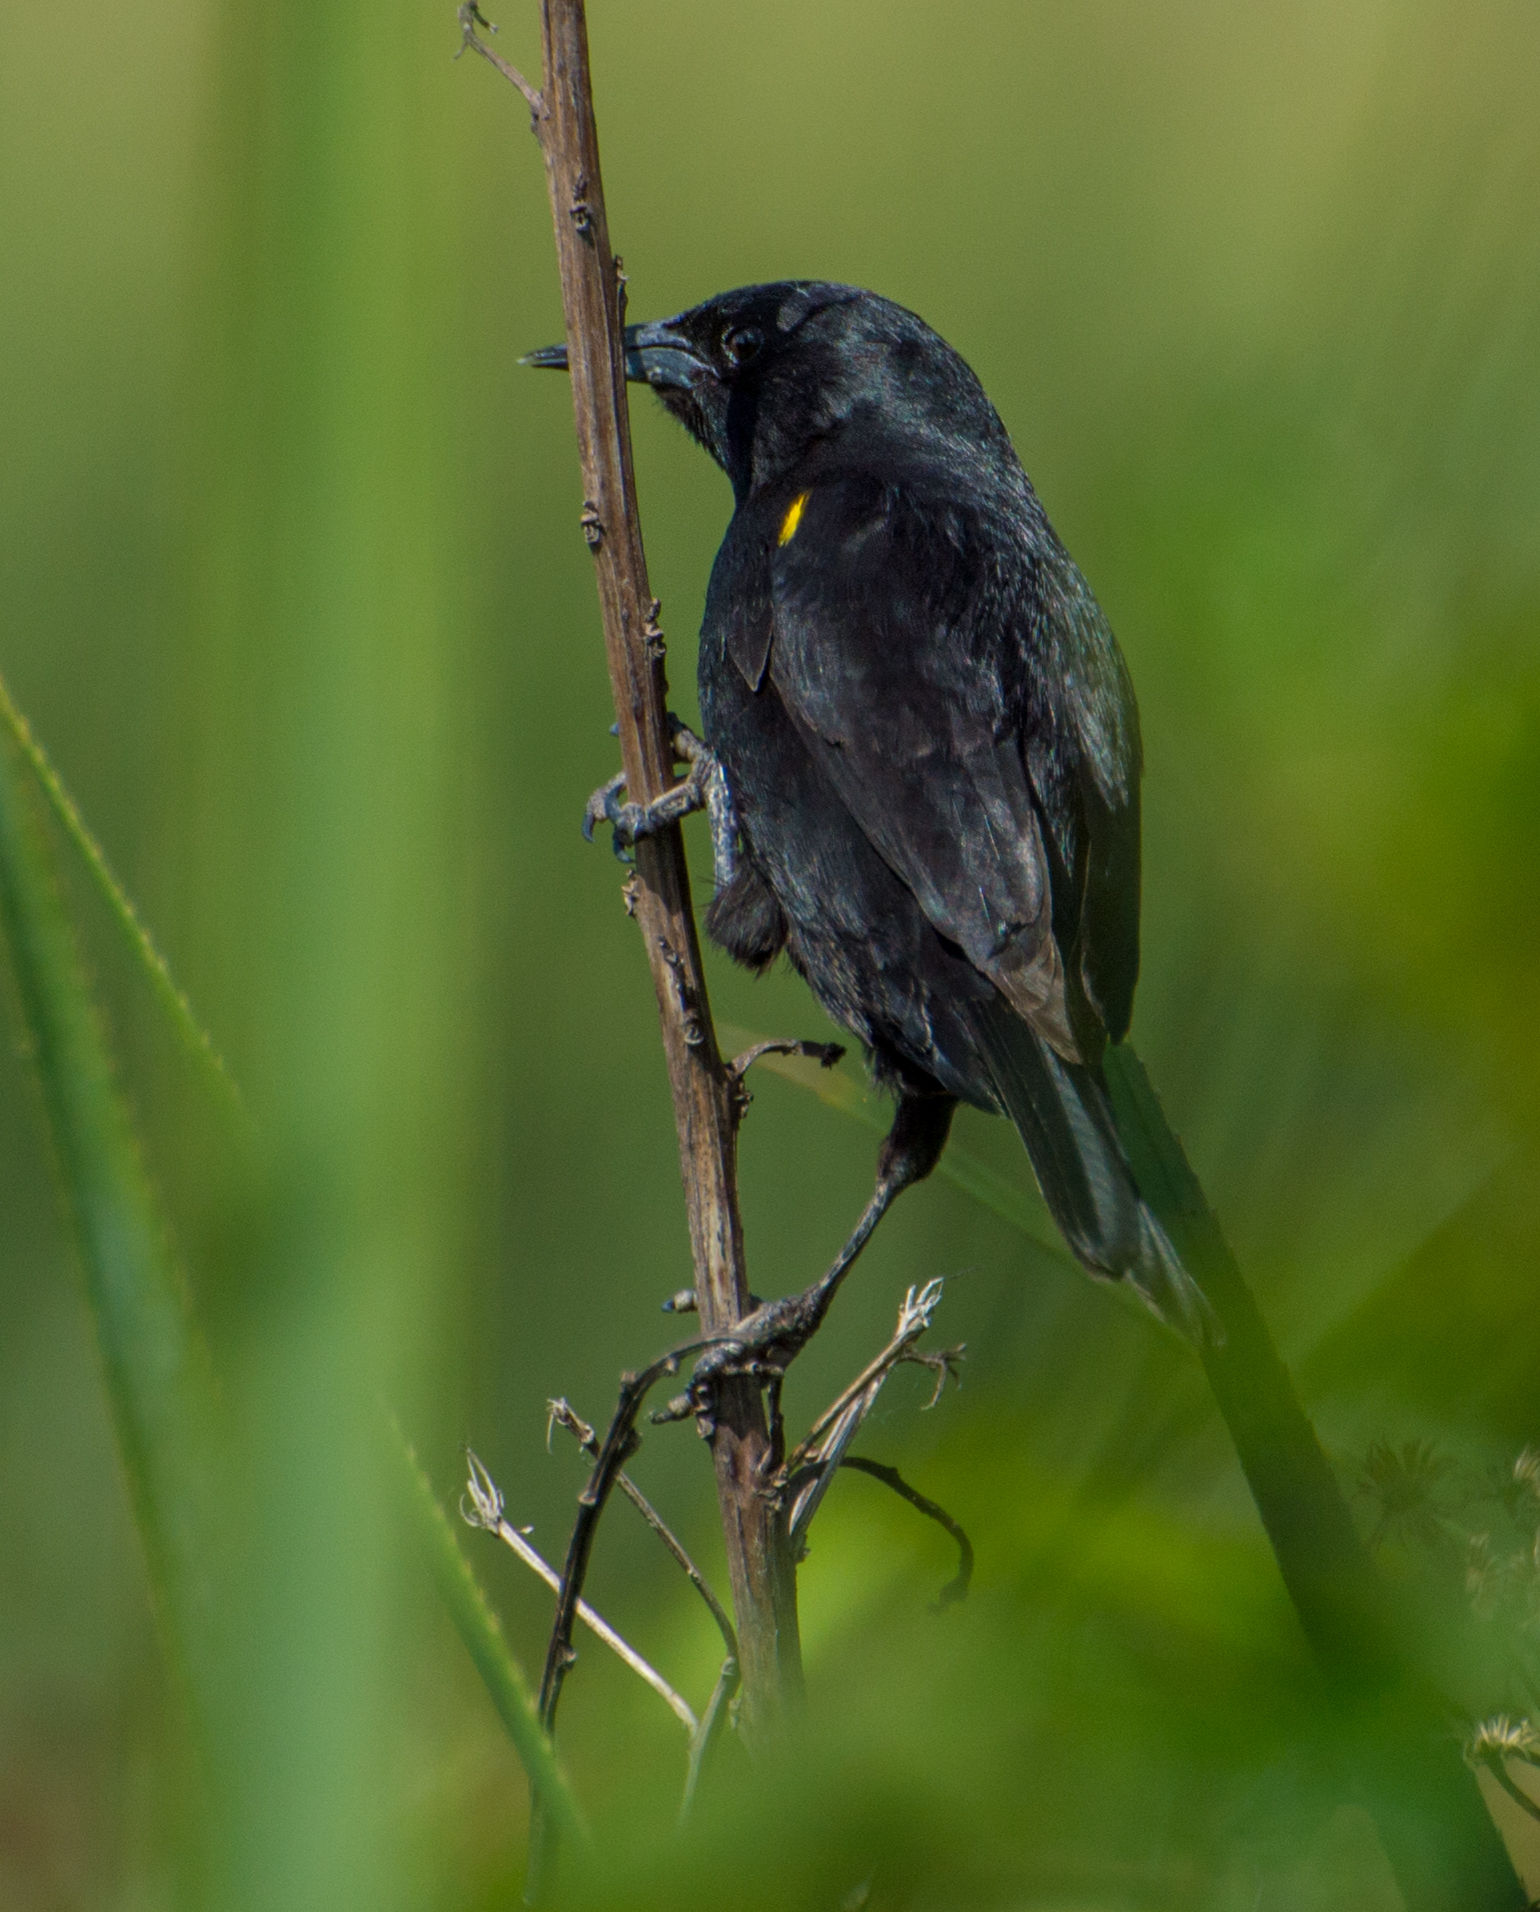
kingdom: Animalia
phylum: Chordata
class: Aves
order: Passeriformes
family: Icteridae
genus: Agelasticus
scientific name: Agelasticus thilius
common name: Yellow-winged blackbird
